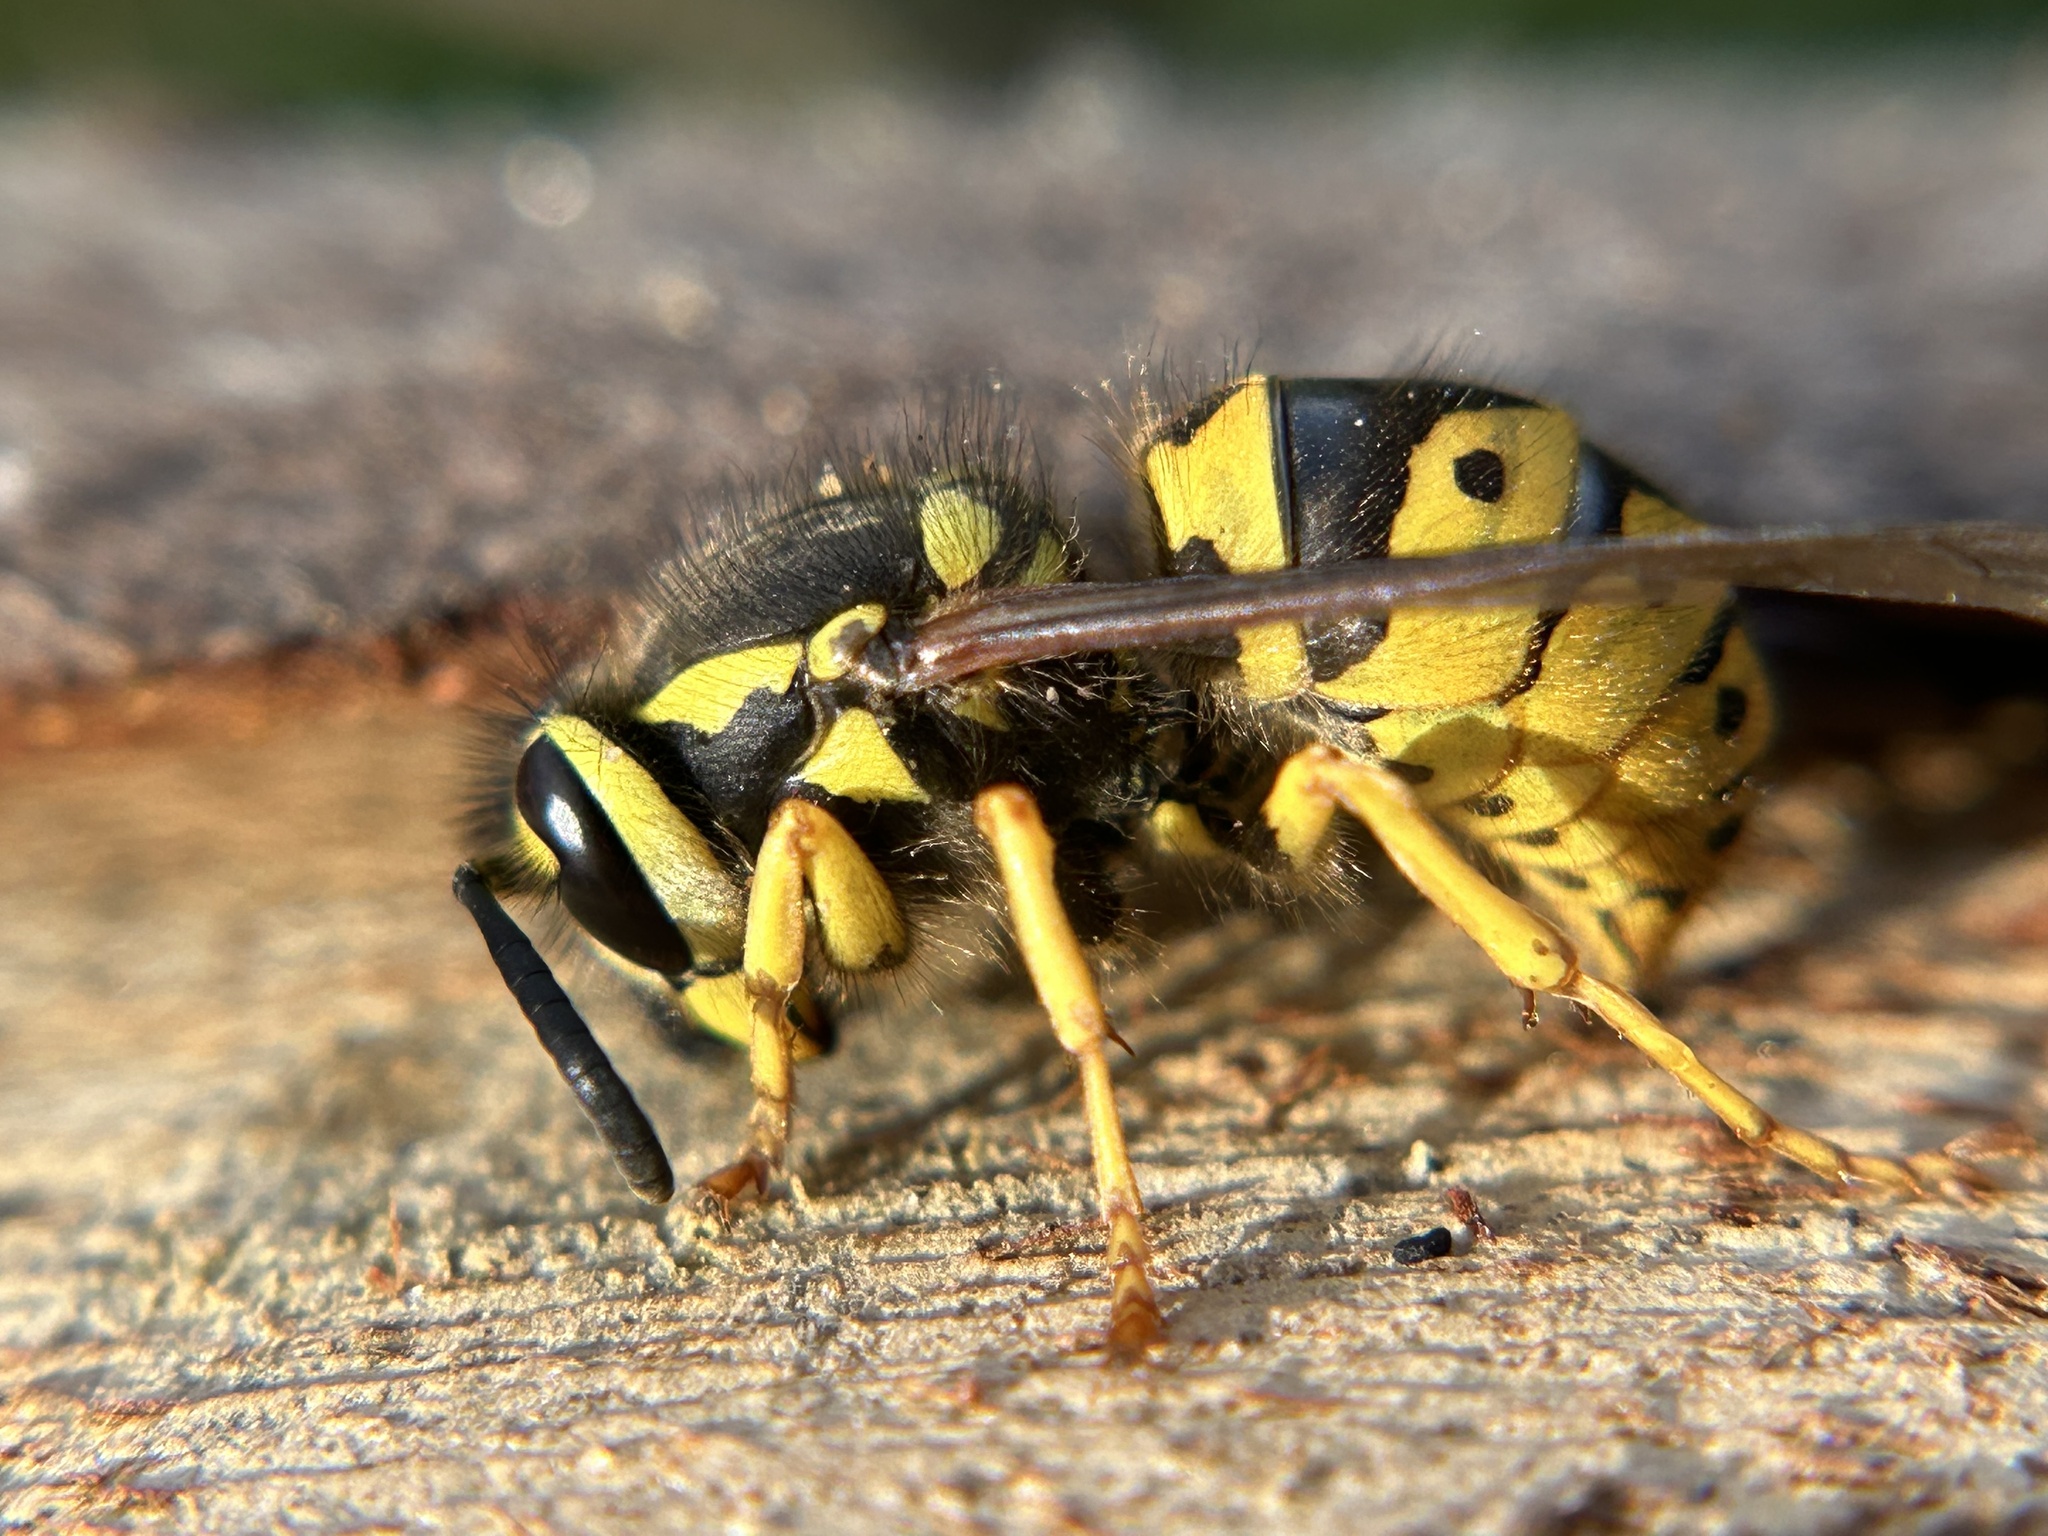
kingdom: Animalia
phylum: Arthropoda
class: Insecta
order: Hymenoptera
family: Vespidae
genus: Vespula
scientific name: Vespula pensylvanica
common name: Western yellowjacket
